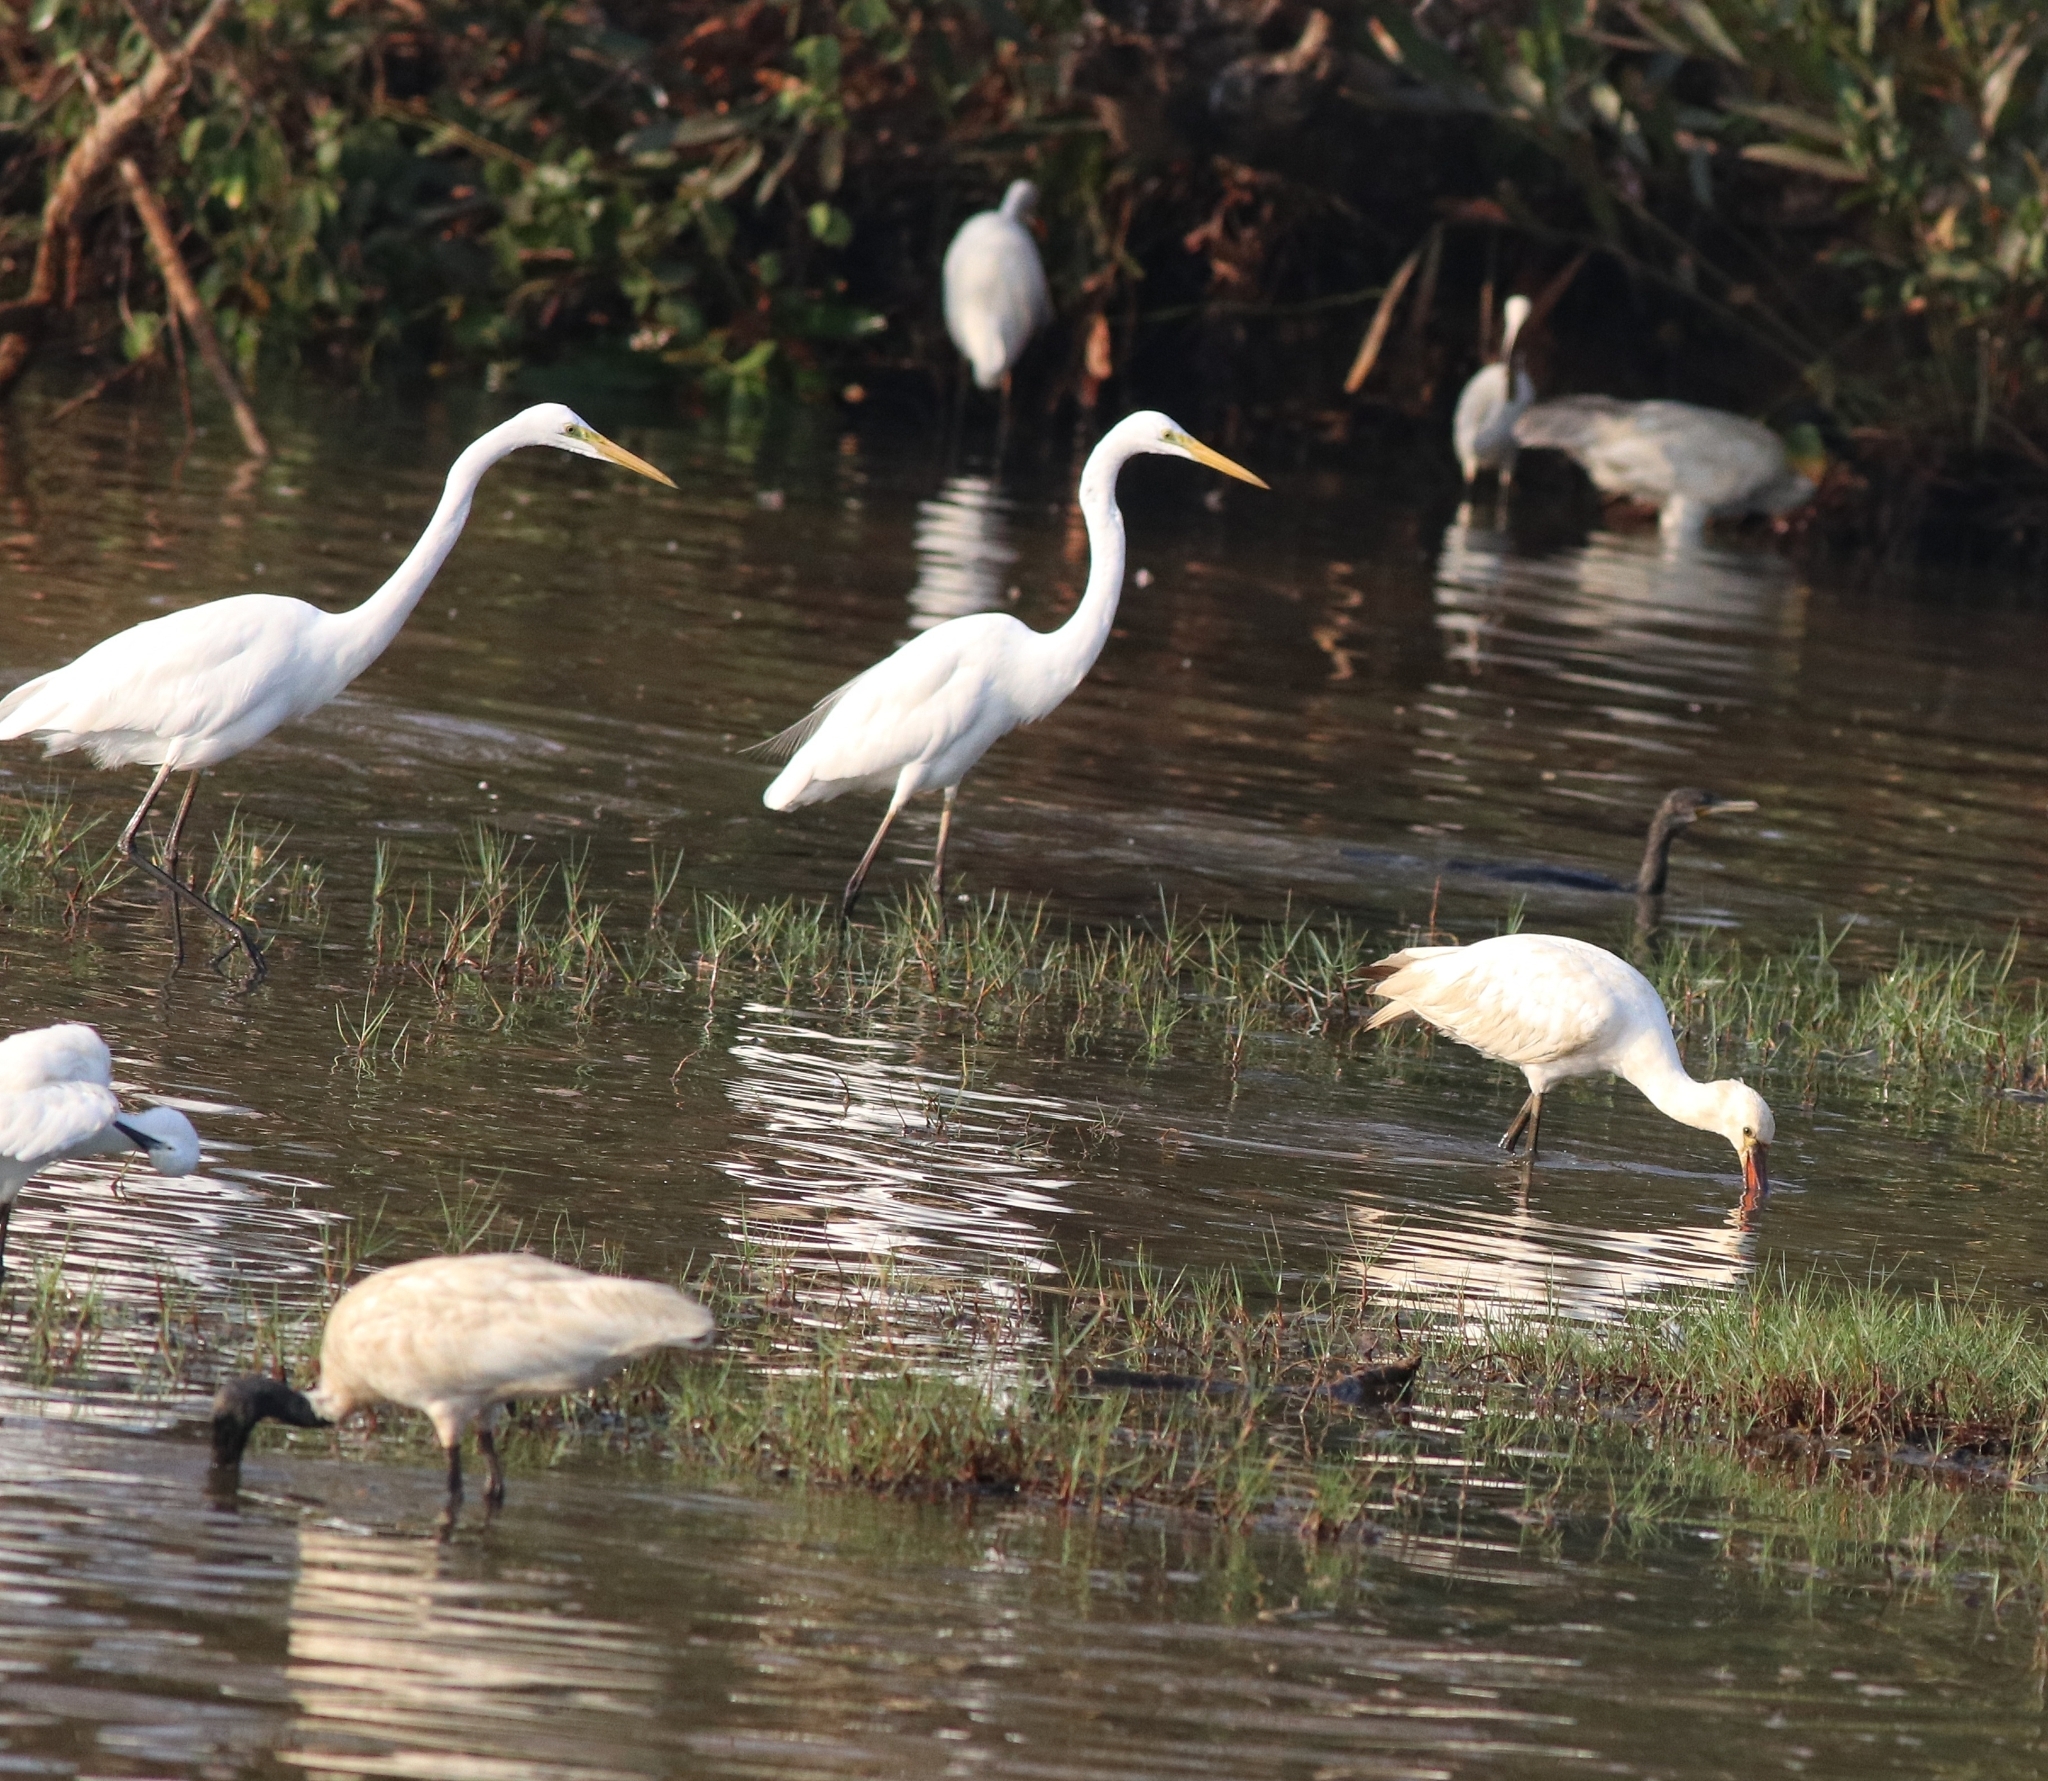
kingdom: Animalia
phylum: Chordata
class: Aves
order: Pelecaniformes
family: Threskiornithidae
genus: Threskiornis
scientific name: Threskiornis melanocephalus
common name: Black-headed ibis
